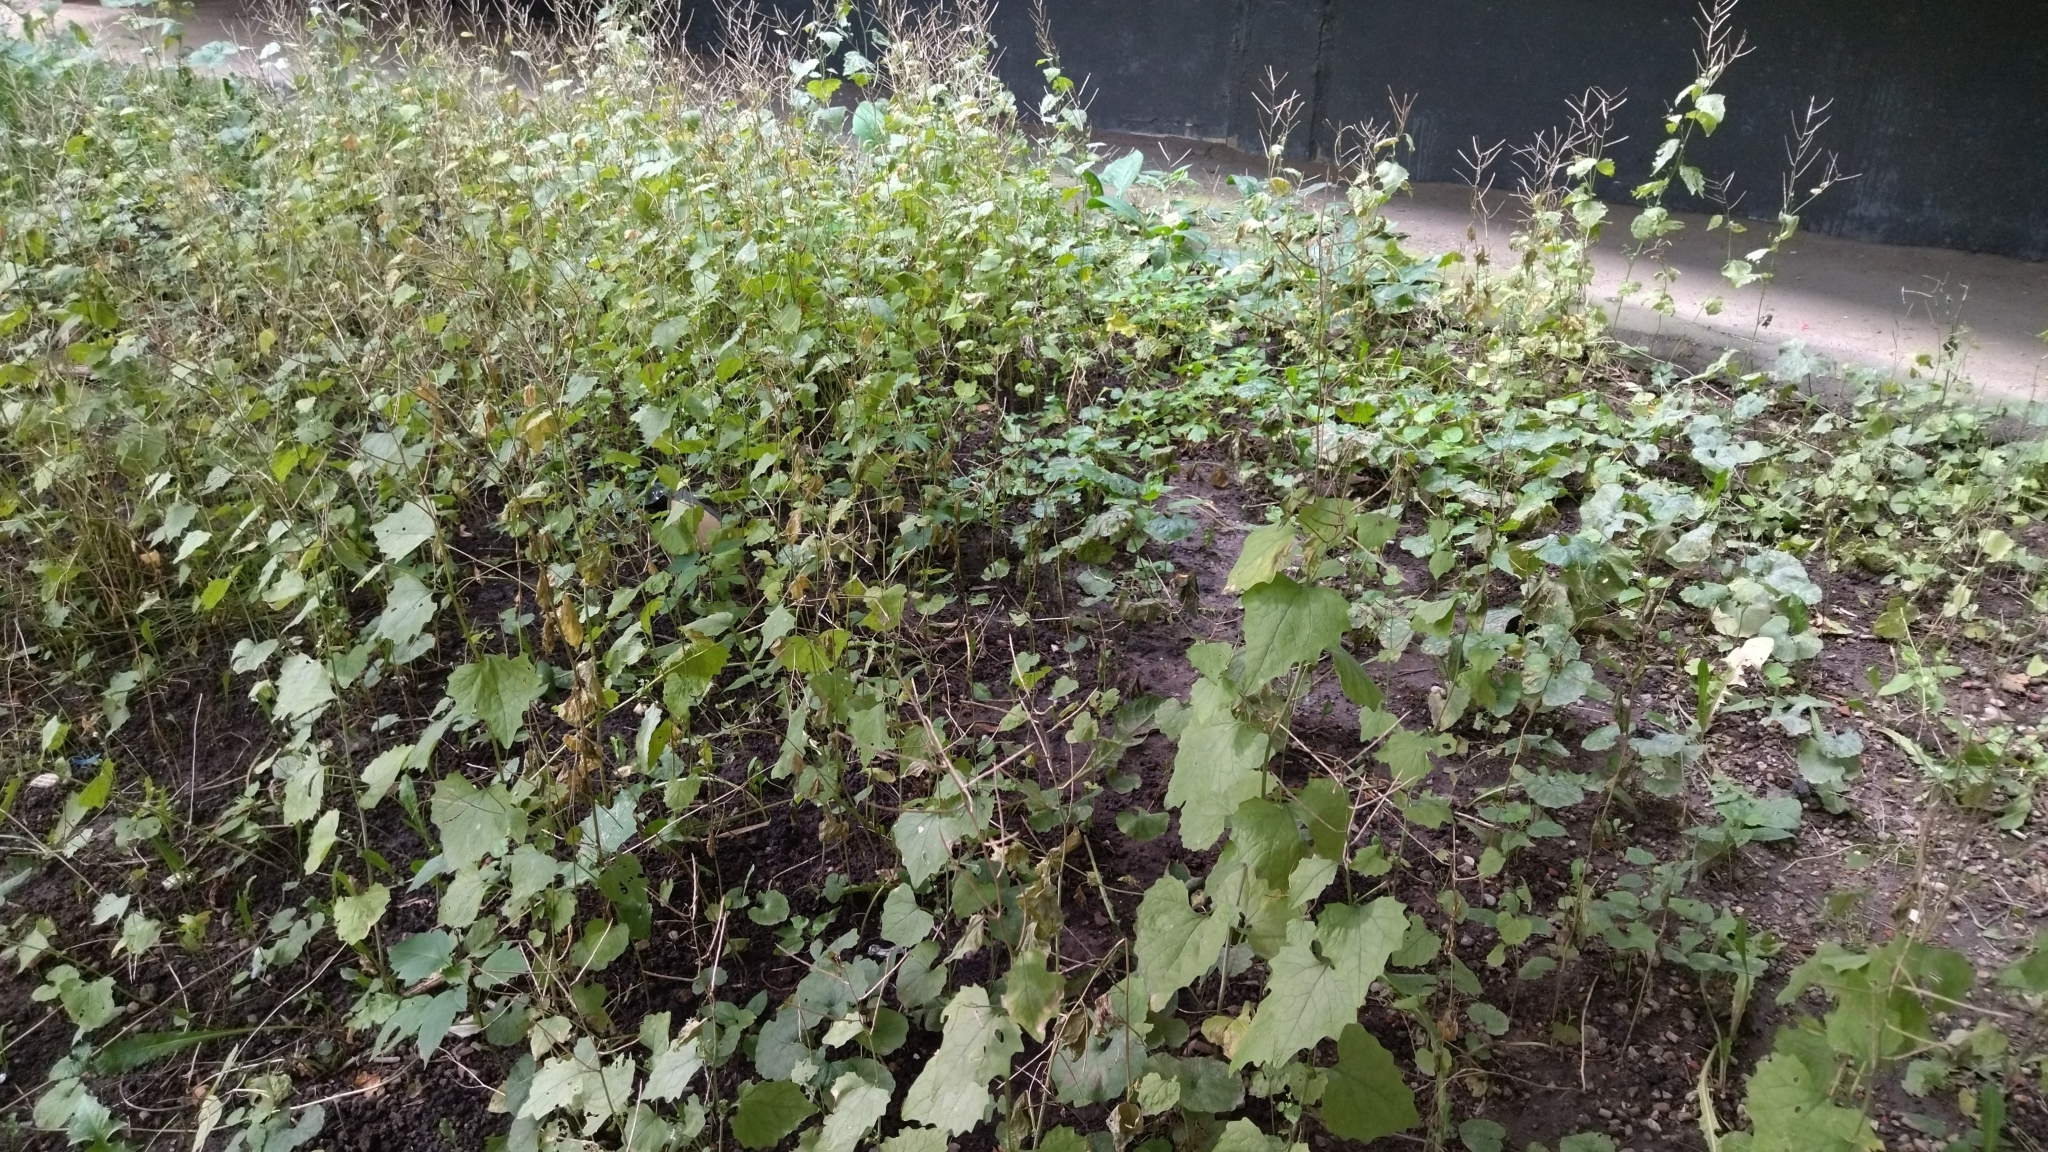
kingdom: Plantae
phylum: Tracheophyta
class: Magnoliopsida
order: Brassicales
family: Brassicaceae
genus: Alliaria
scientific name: Alliaria petiolata
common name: Garlic mustard
